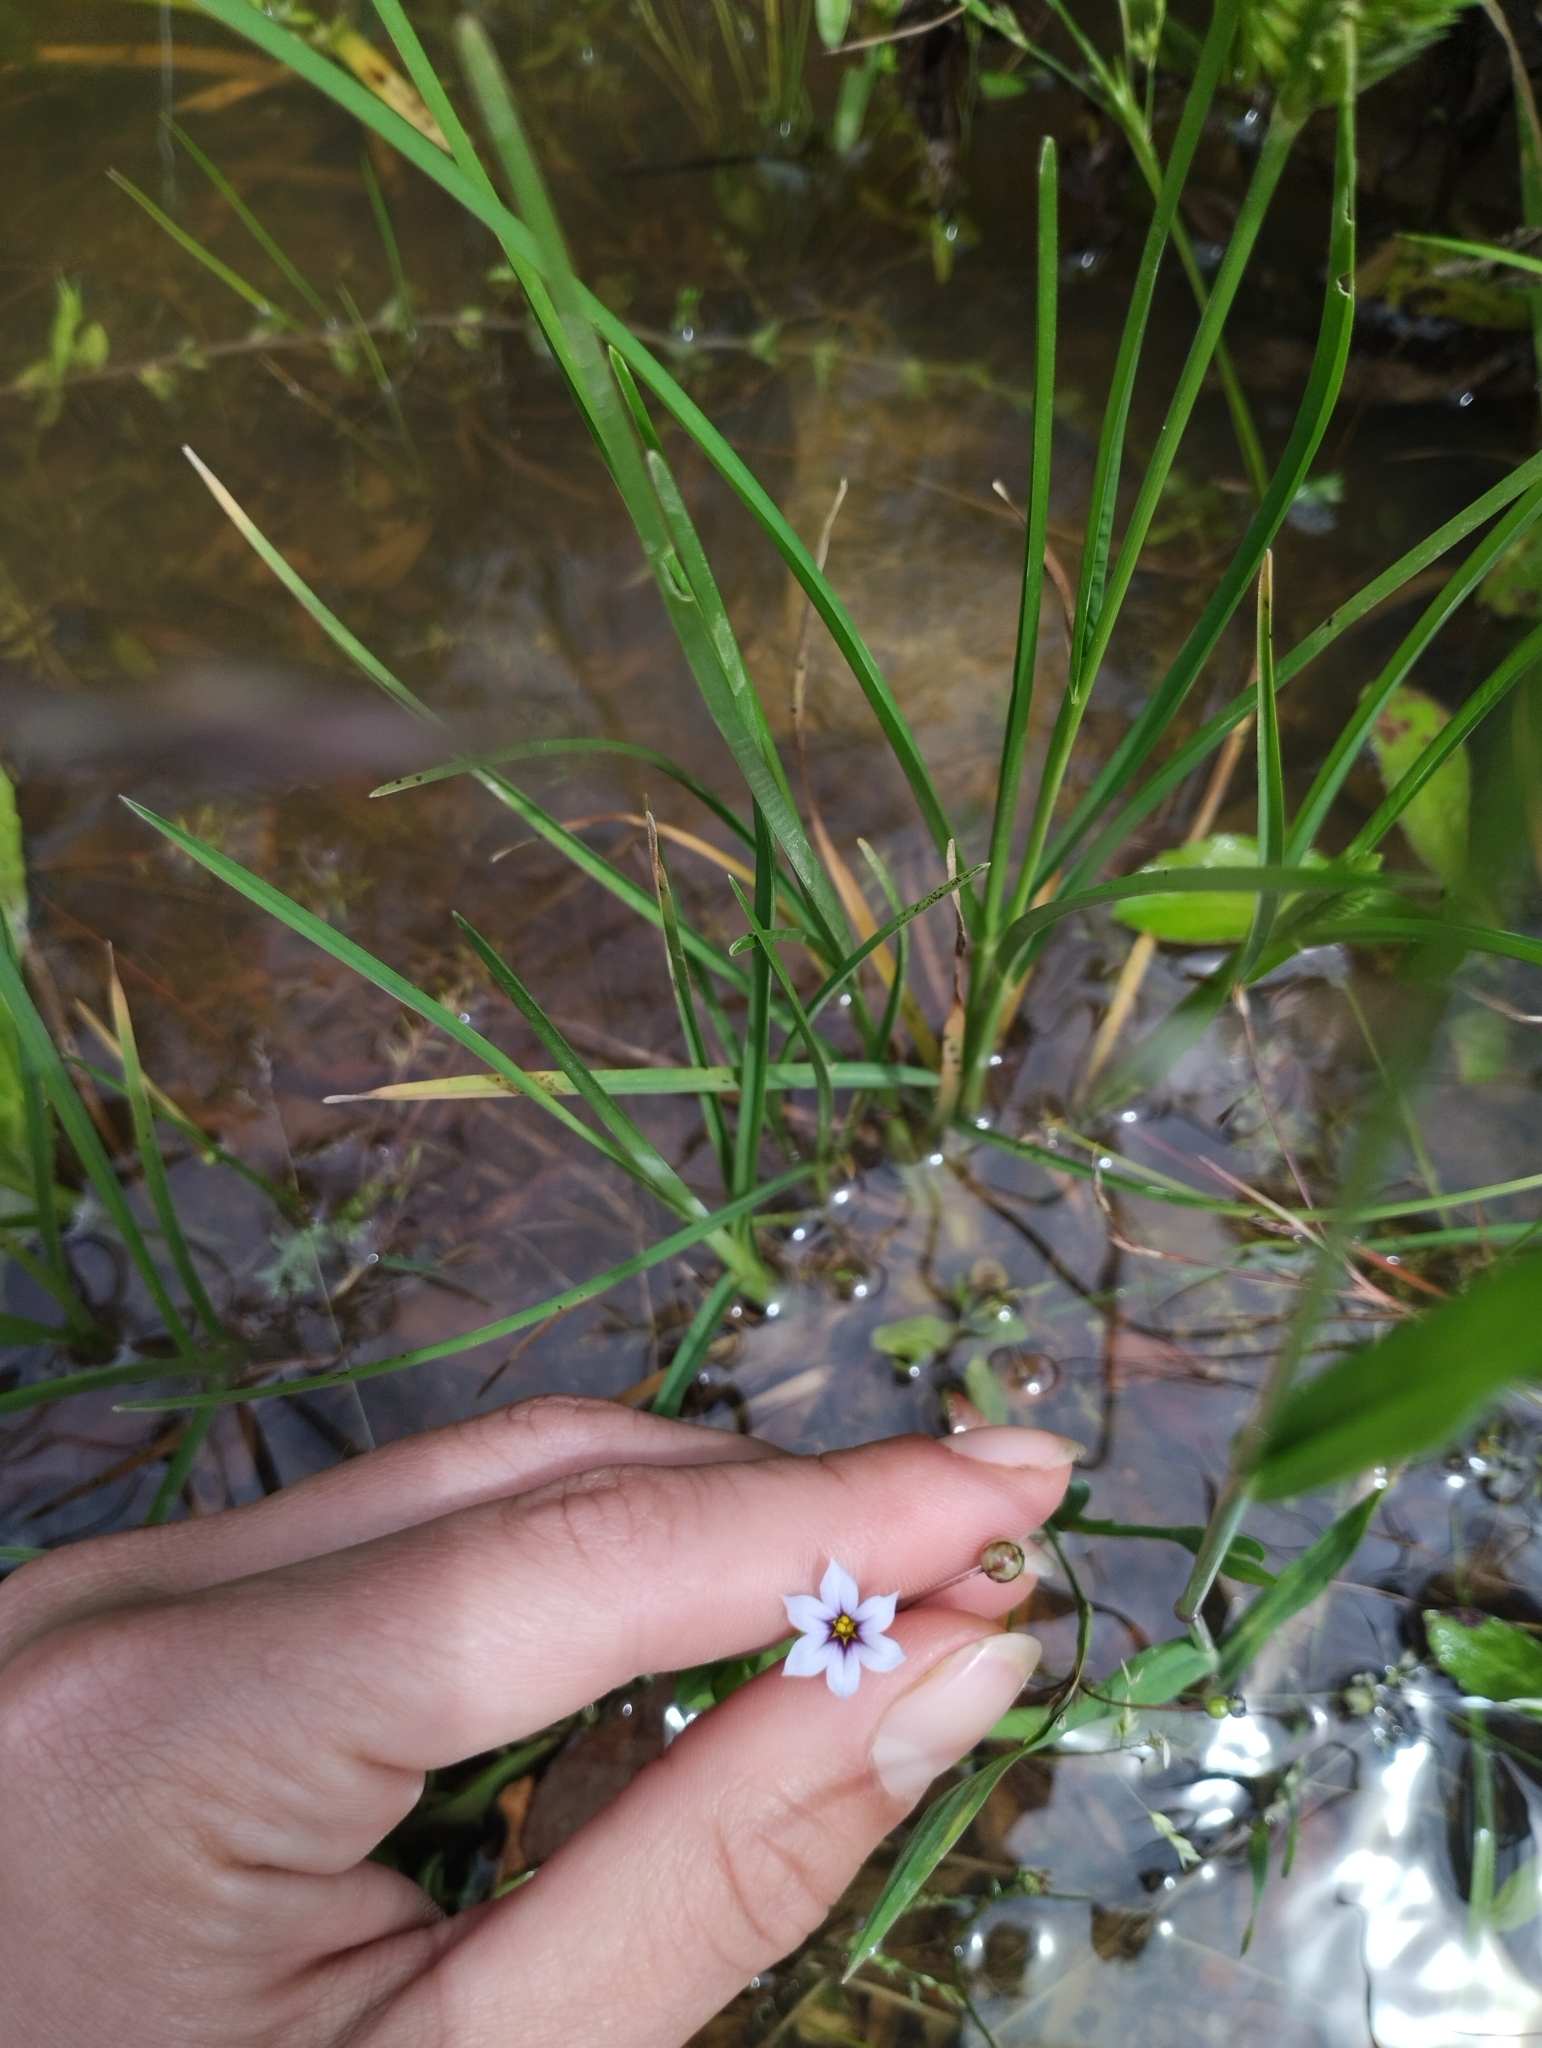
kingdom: Plantae
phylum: Tracheophyta
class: Liliopsida
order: Asparagales
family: Iridaceae
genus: Sisyrinchium
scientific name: Sisyrinchium micranthum
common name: Bermuda pigroot
